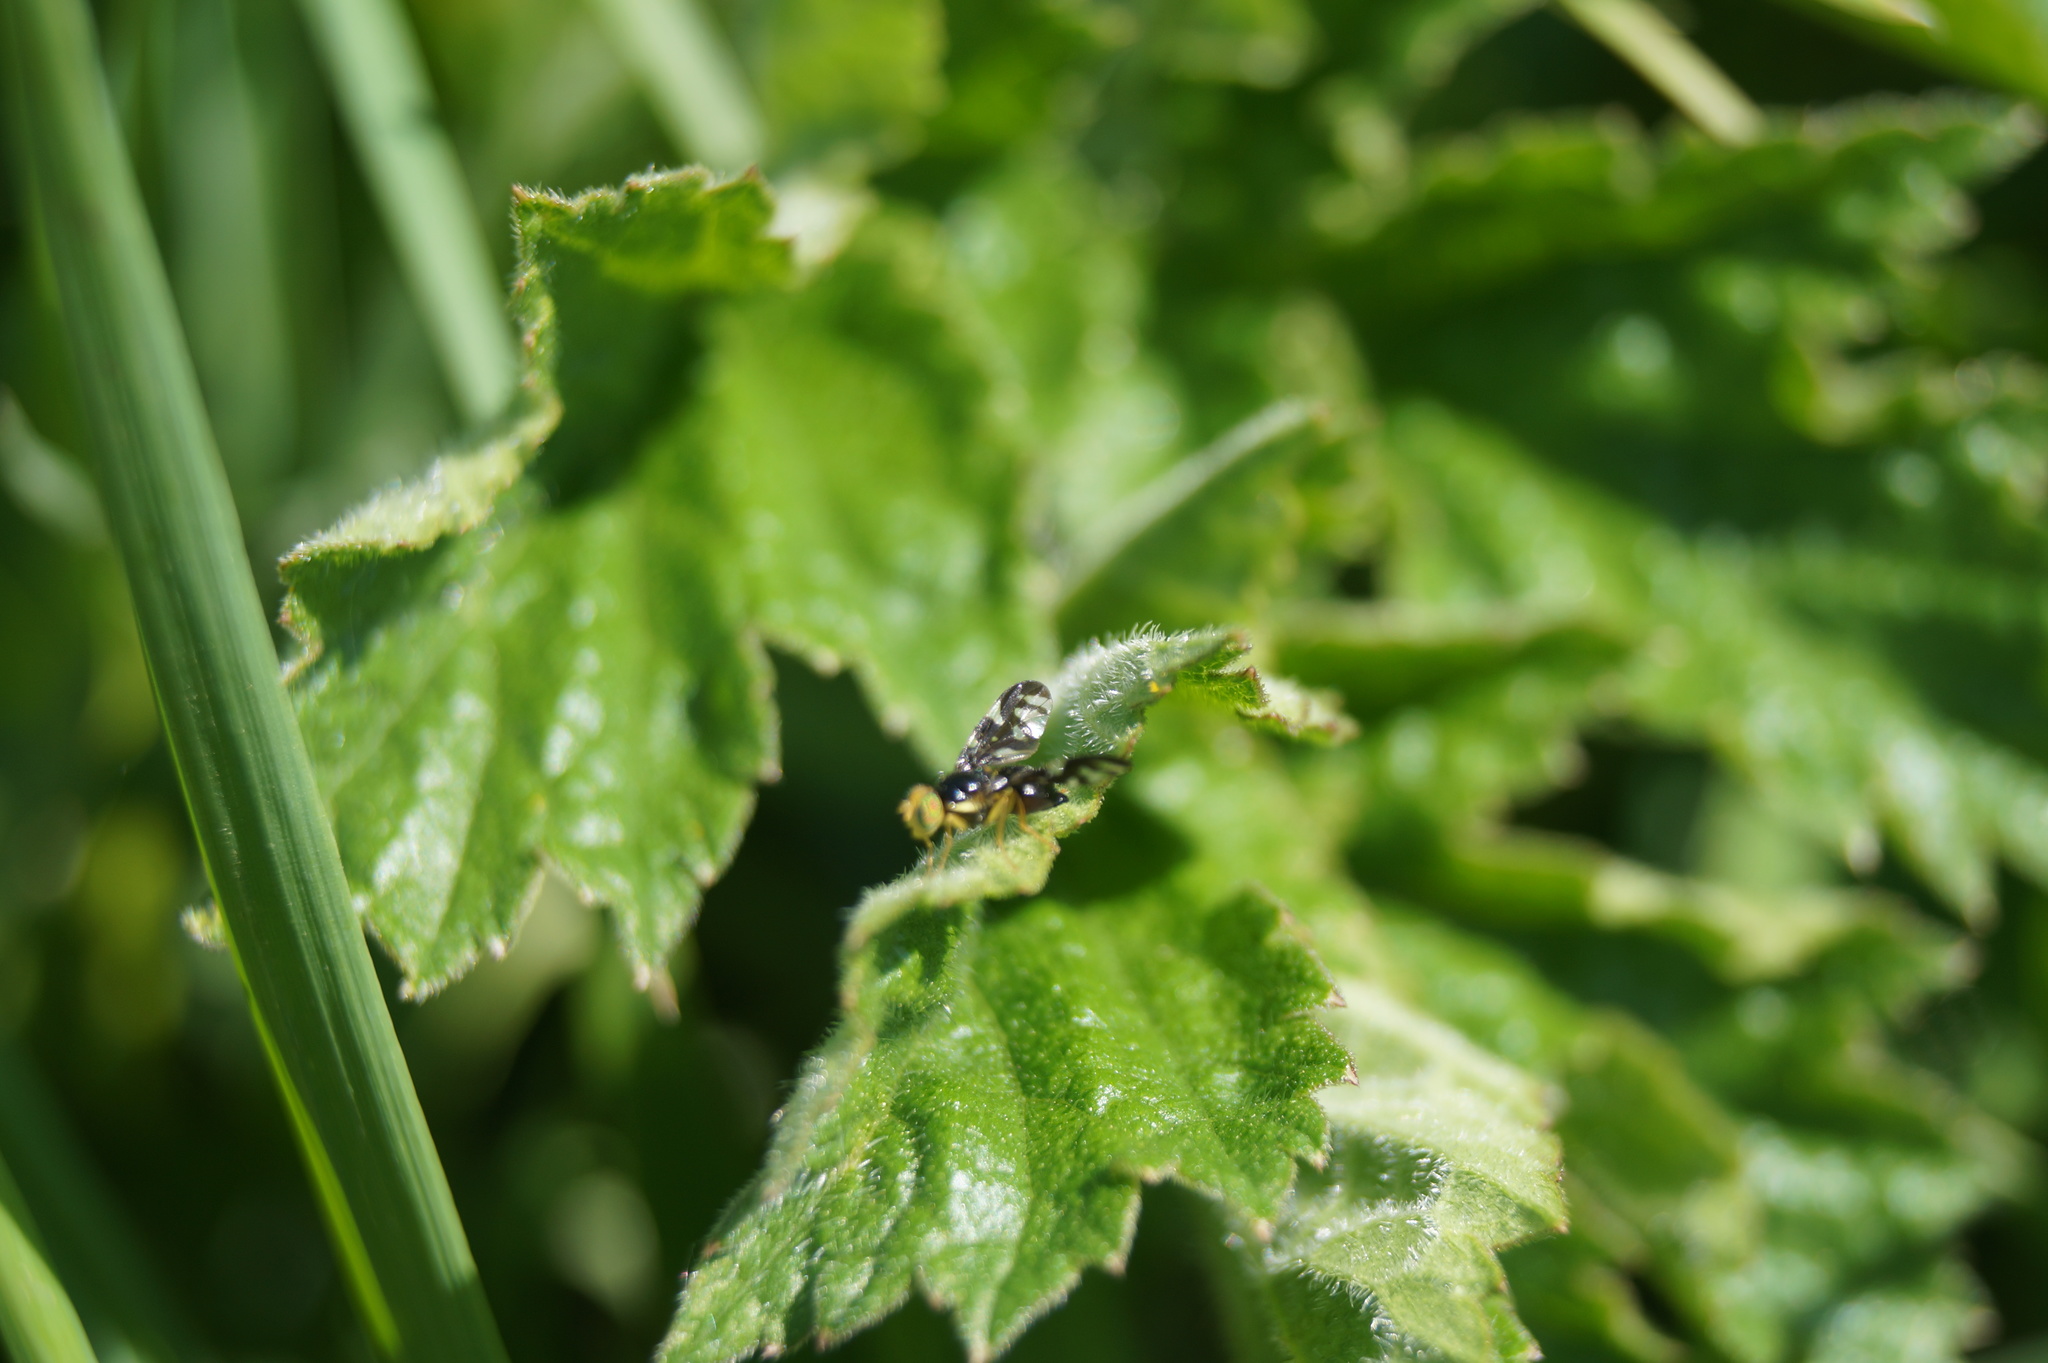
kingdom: Animalia
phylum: Arthropoda
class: Insecta
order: Diptera
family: Tephritidae
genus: Euleia
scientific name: Euleia heraclei
